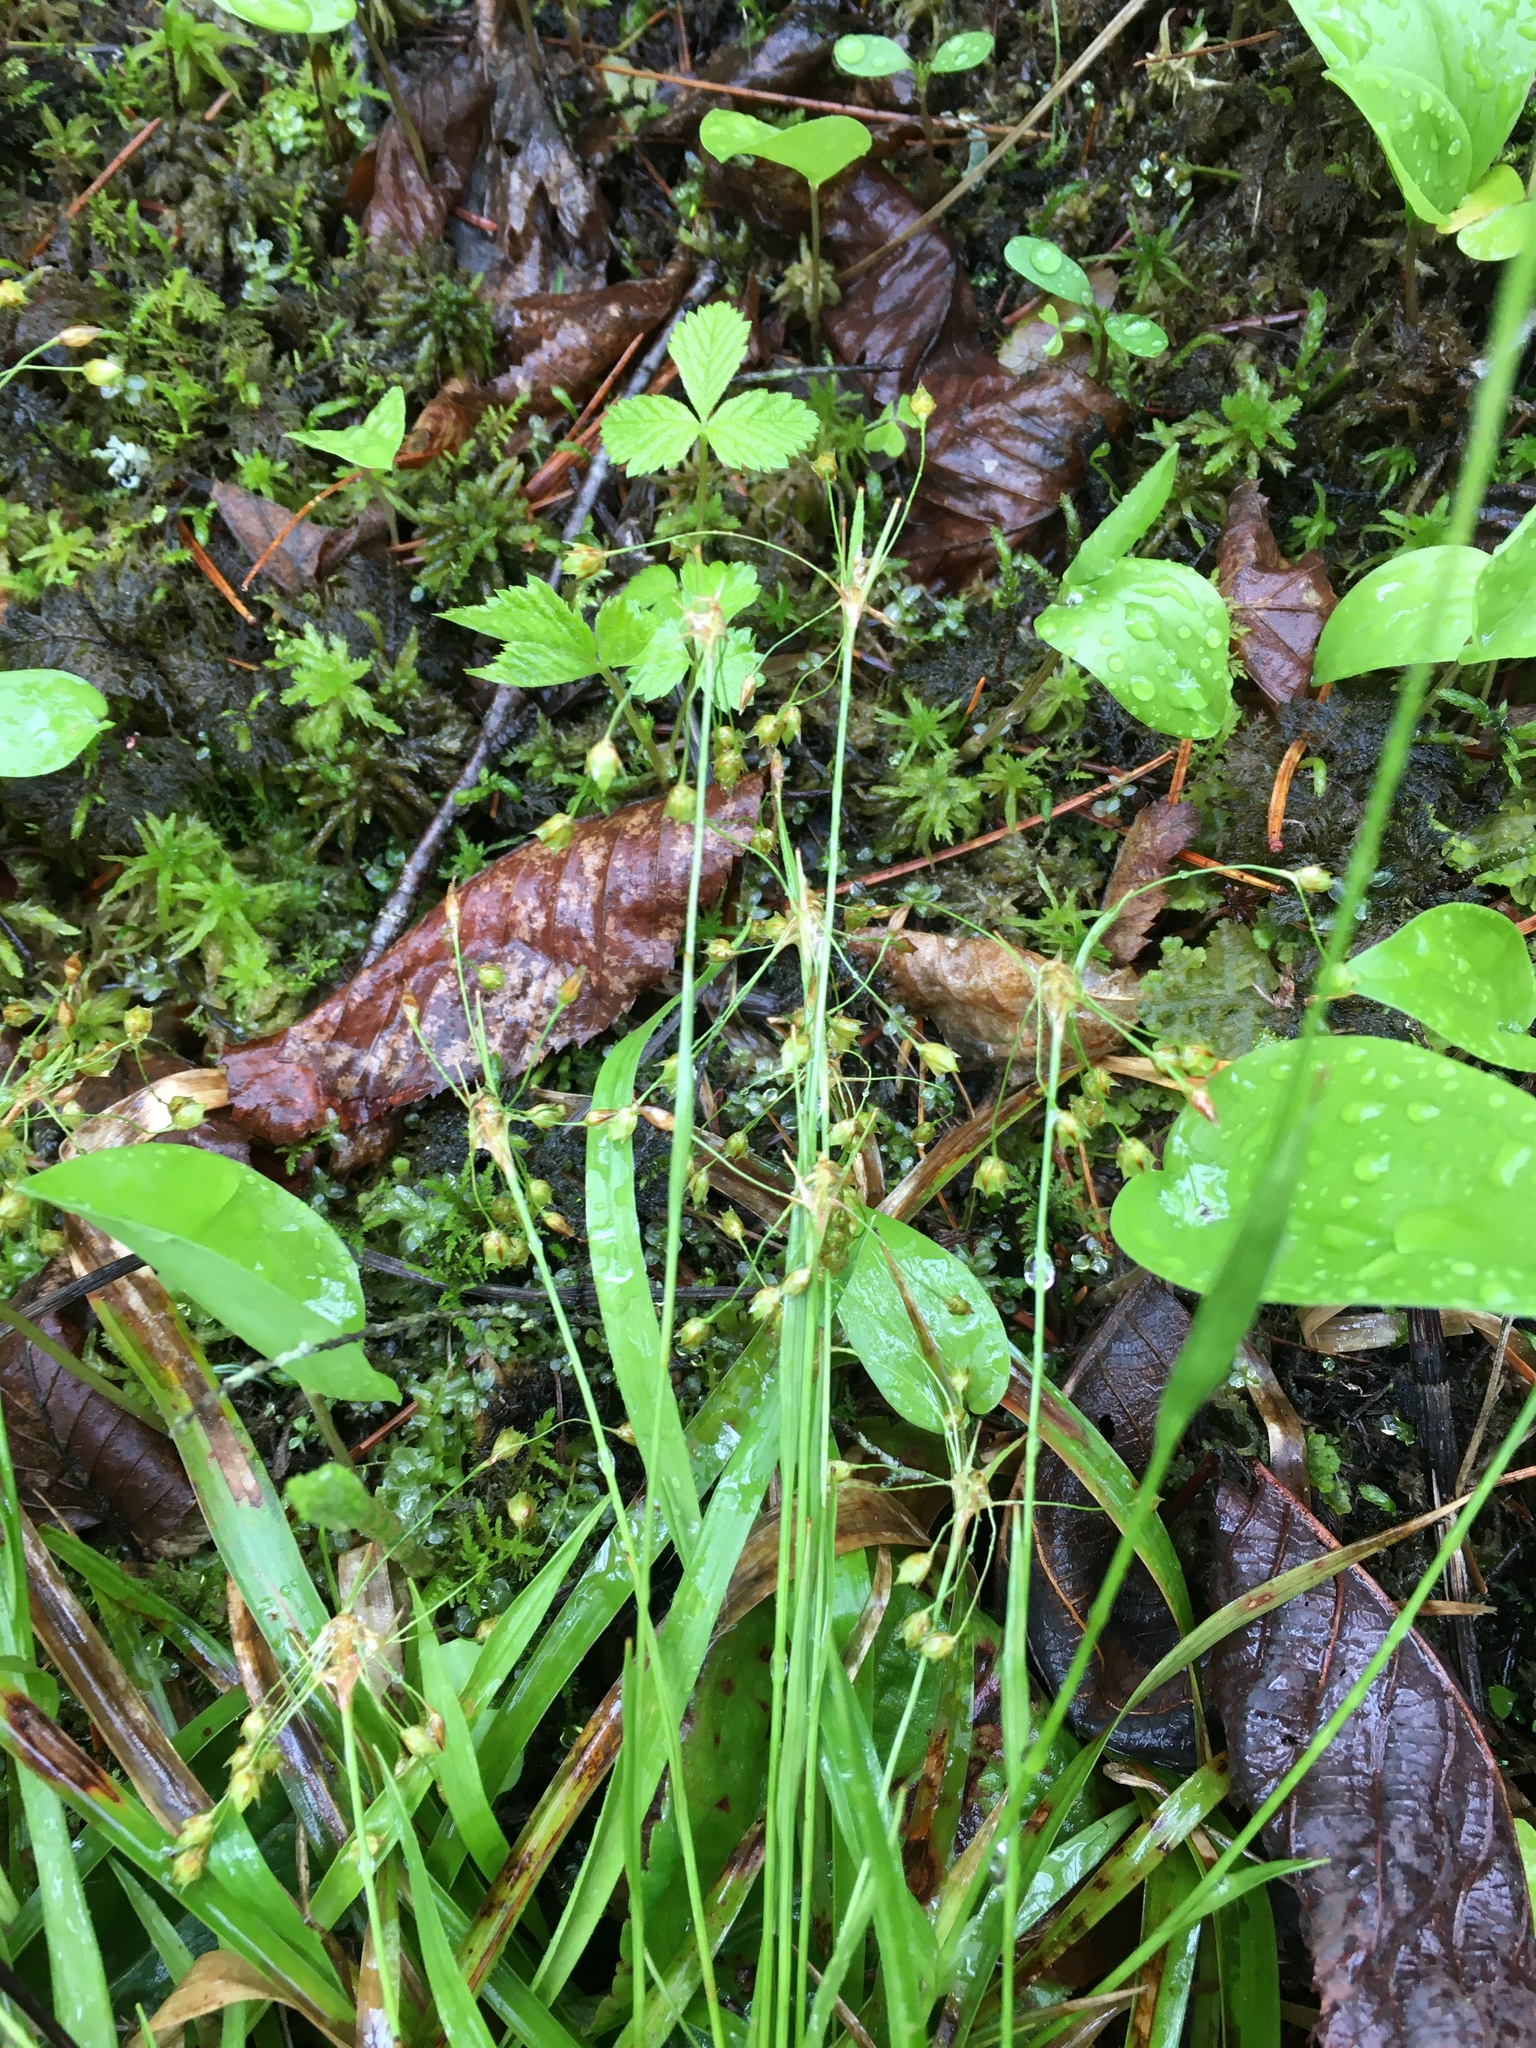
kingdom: Plantae
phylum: Tracheophyta
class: Liliopsida
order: Poales
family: Juncaceae
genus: Luzula
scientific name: Luzula acuminata
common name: Hairy woodrush
